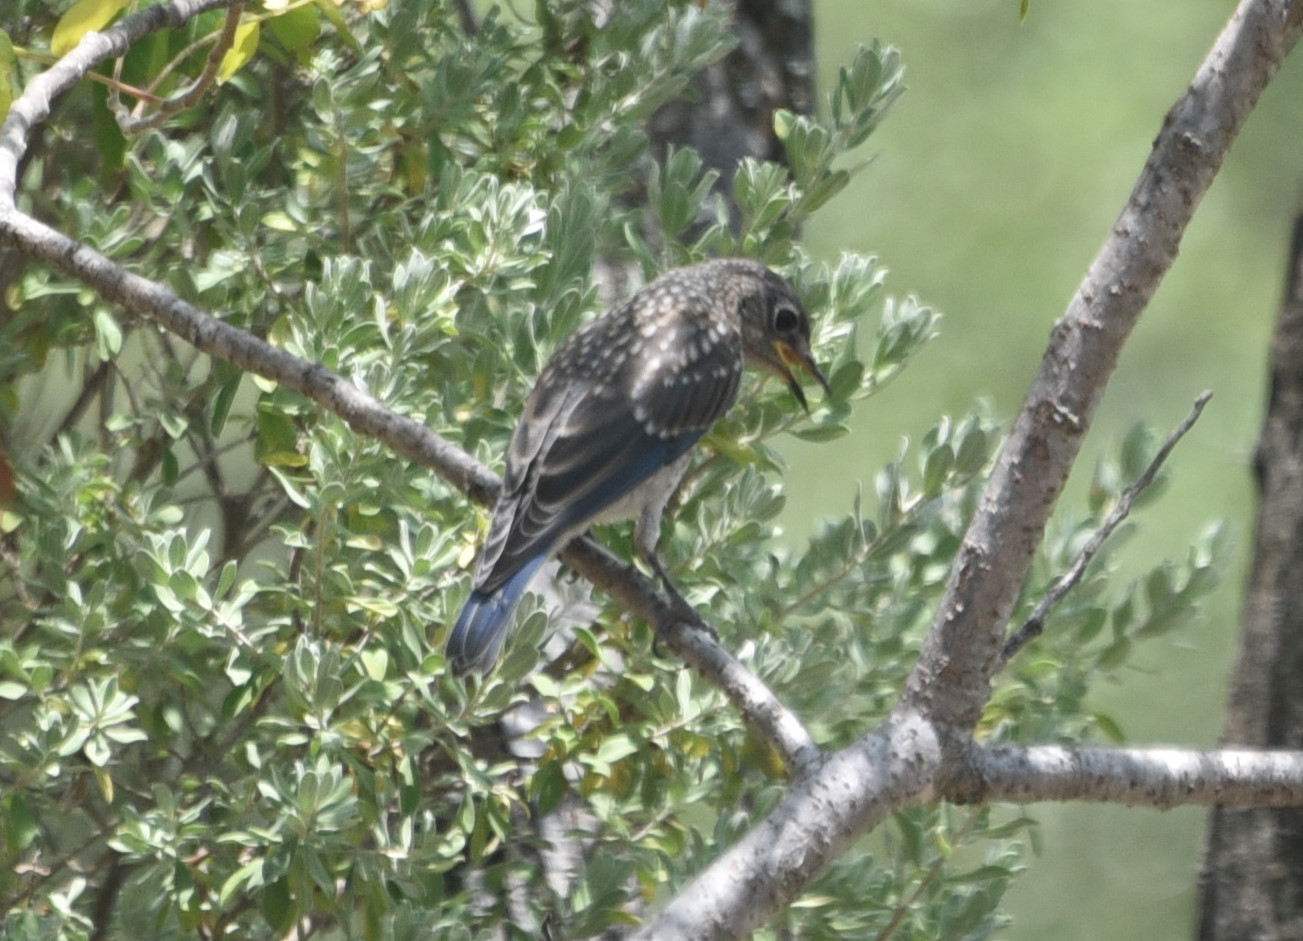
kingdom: Animalia
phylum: Chordata
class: Aves
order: Passeriformes
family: Turdidae
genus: Sialia
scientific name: Sialia sialis
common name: Eastern bluebird
